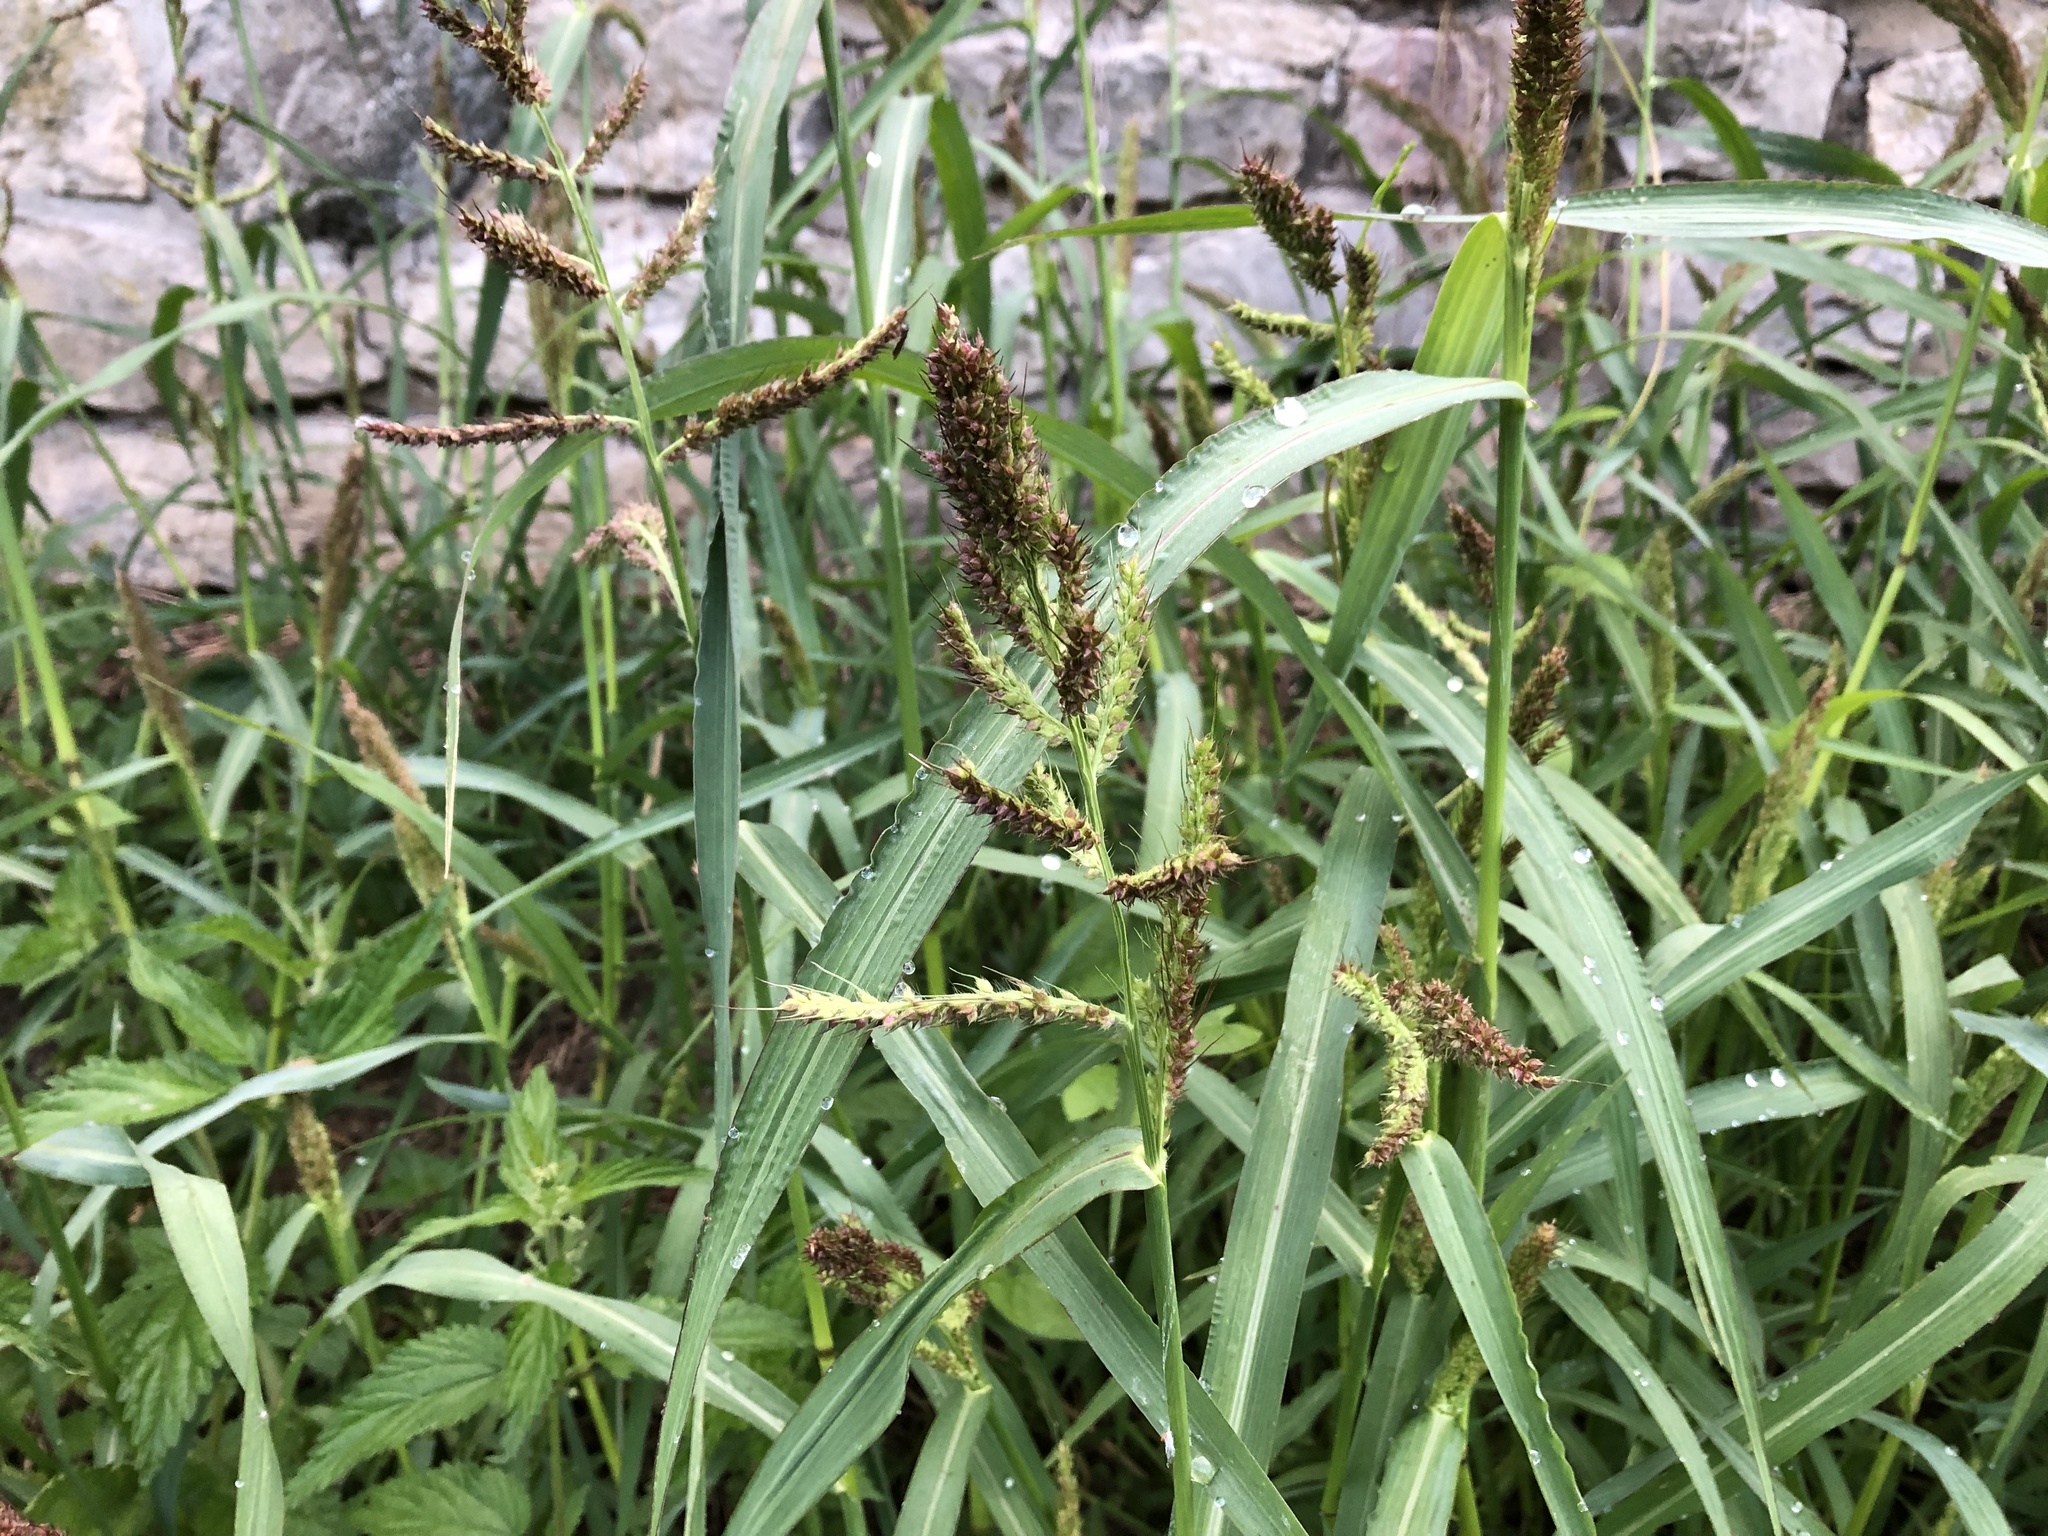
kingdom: Plantae
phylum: Tracheophyta
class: Liliopsida
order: Poales
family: Poaceae
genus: Echinochloa
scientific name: Echinochloa crus-galli
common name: Cockspur
